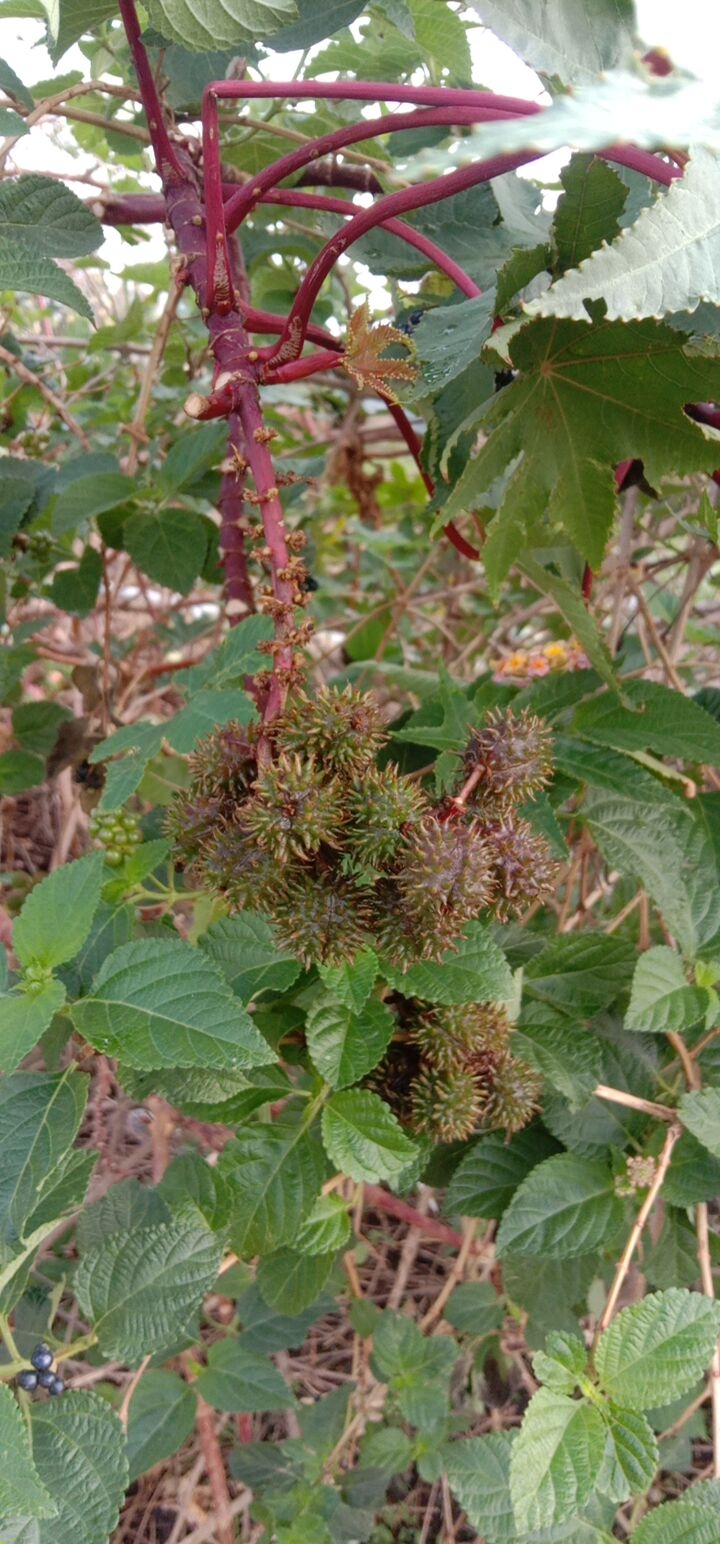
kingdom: Plantae
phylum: Tracheophyta
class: Magnoliopsida
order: Malpighiales
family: Euphorbiaceae
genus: Ricinus
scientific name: Ricinus communis
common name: Castor-oil-plant
